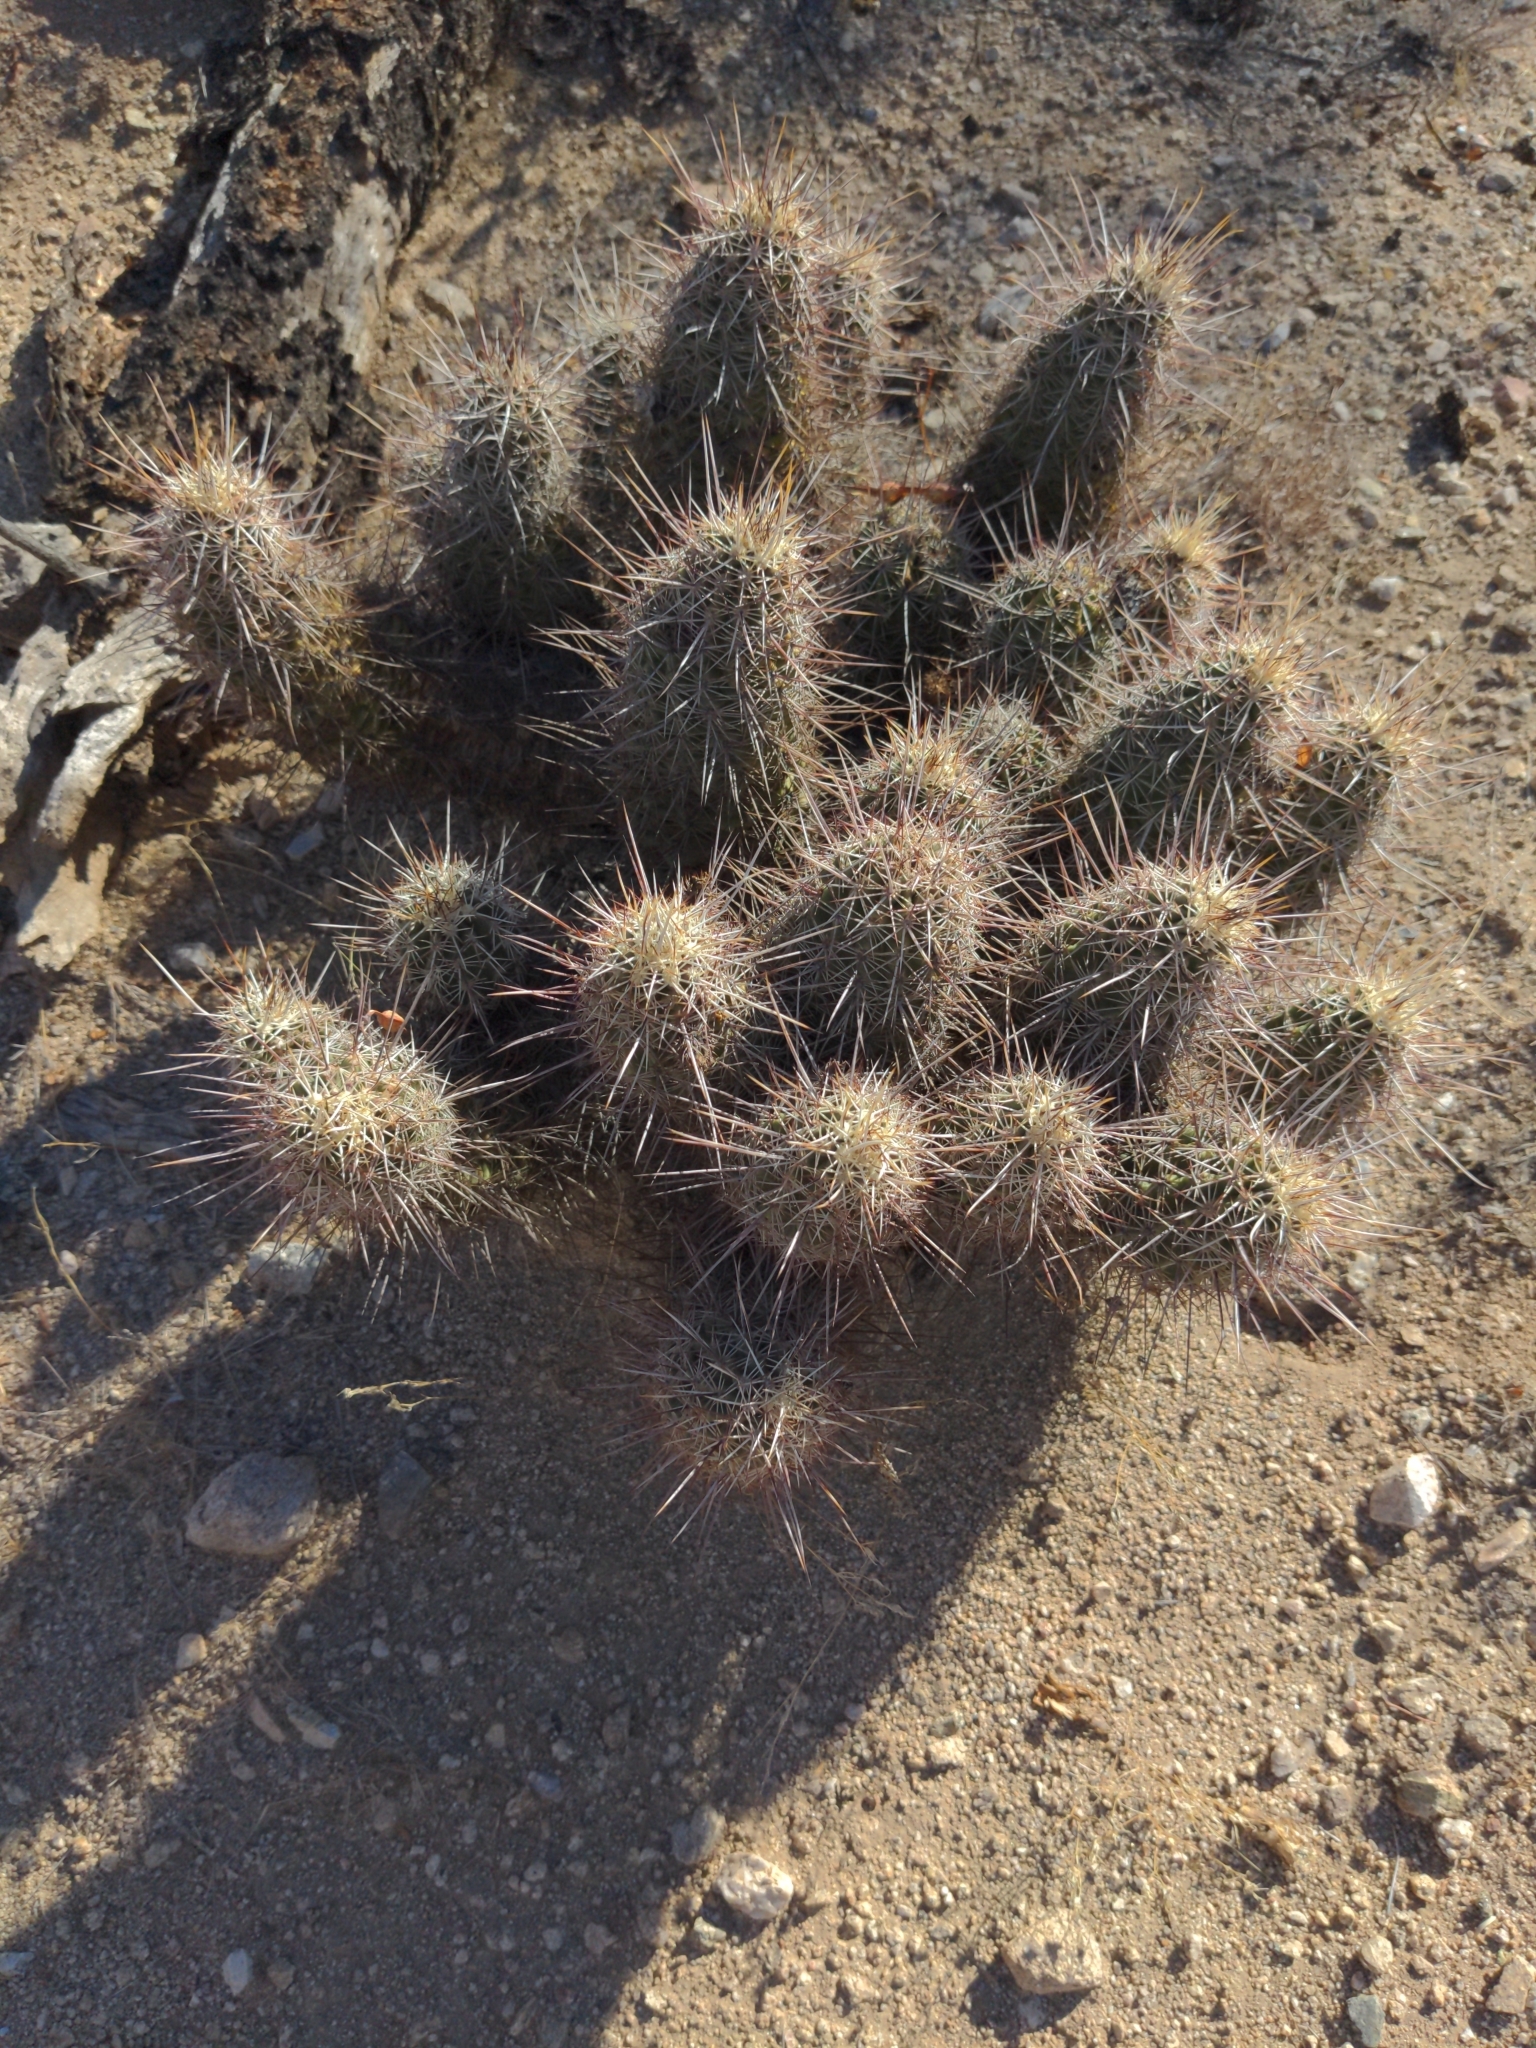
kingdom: Plantae
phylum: Tracheophyta
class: Magnoliopsida
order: Caryophyllales
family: Cactaceae
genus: Echinocereus
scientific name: Echinocereus fasciculatus
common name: Bundle hedgehog
